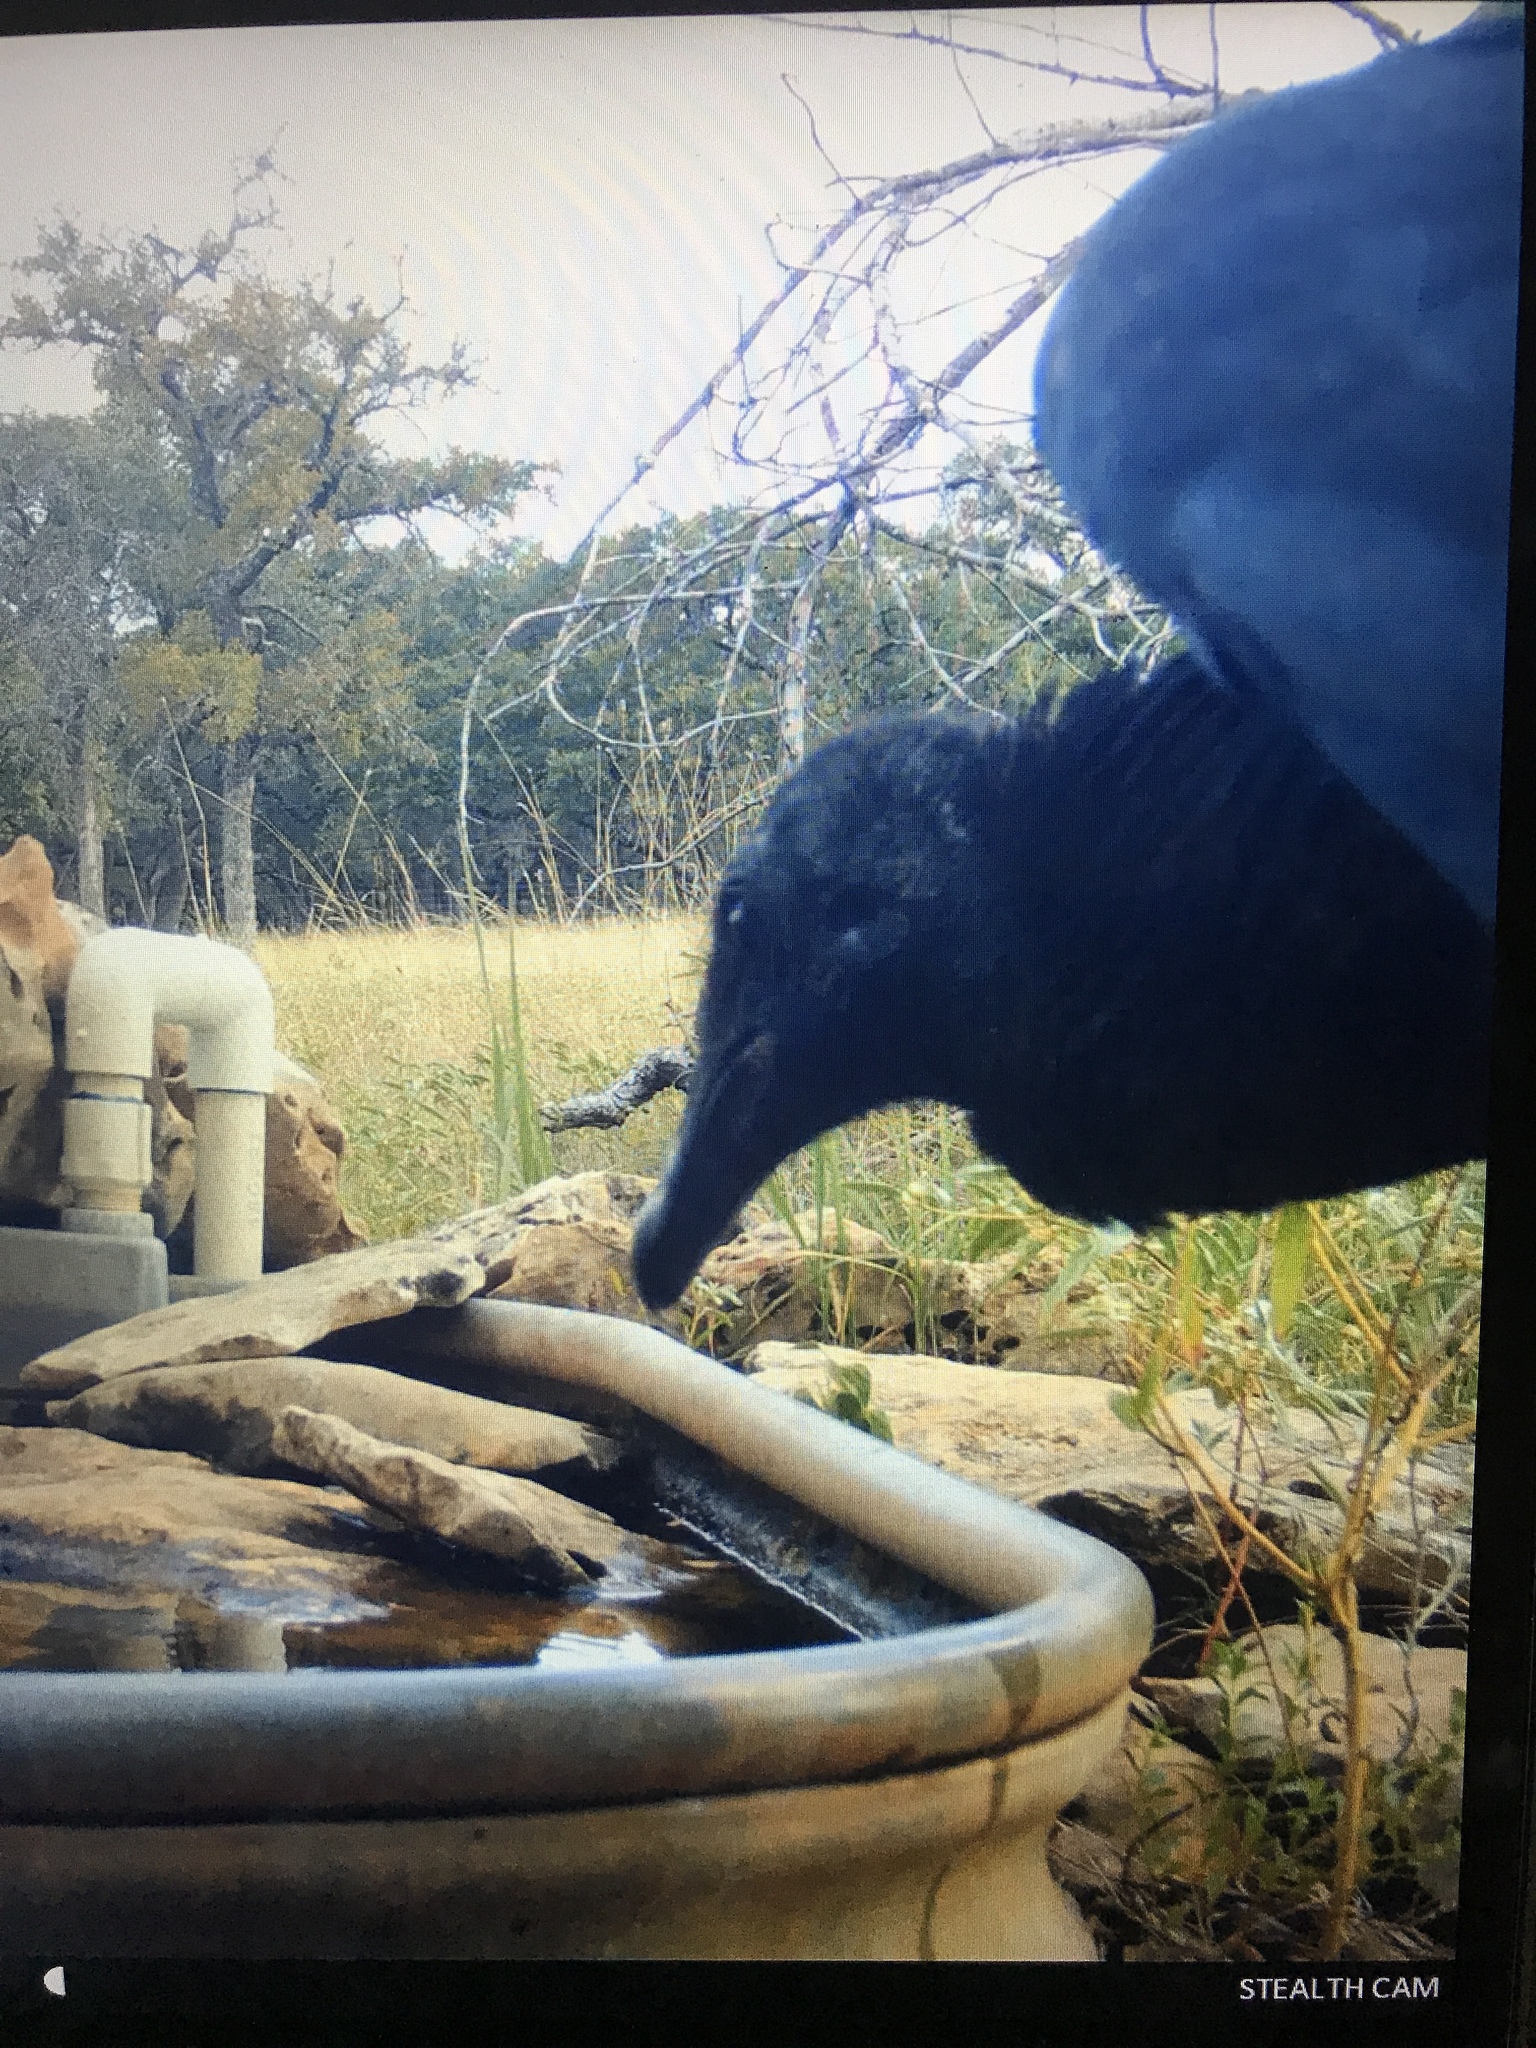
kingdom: Animalia
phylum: Chordata
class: Aves
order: Accipitriformes
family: Cathartidae
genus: Coragyps
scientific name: Coragyps atratus
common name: Black vulture
